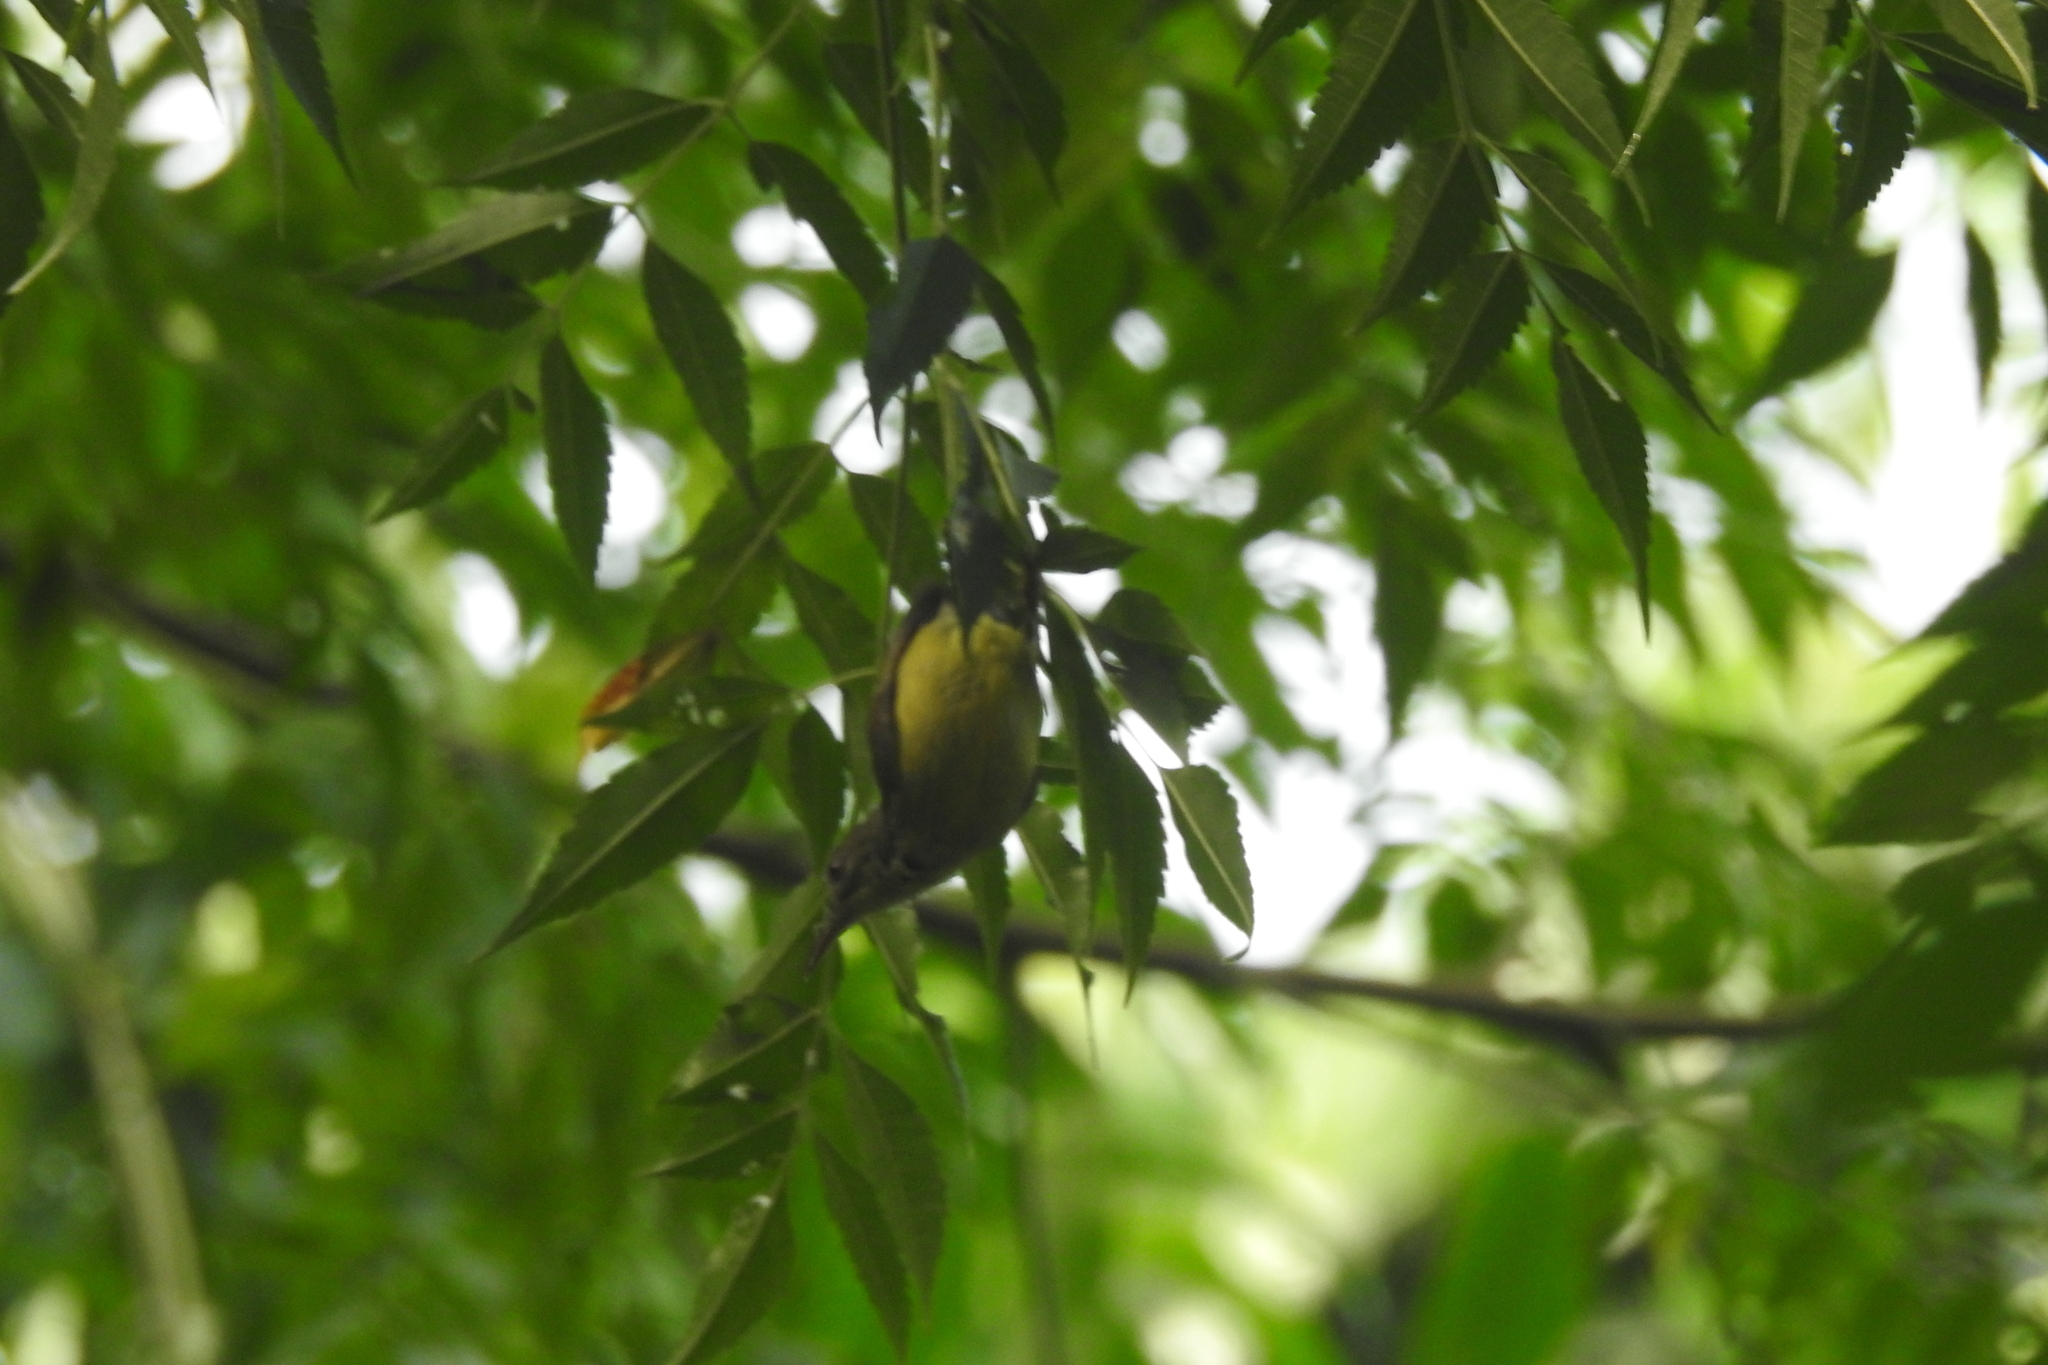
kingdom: Animalia
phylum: Chordata
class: Aves
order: Passeriformes
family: Nectariniidae
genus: Anthreptes
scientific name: Anthreptes malacensis
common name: Brown-throated sunbird
